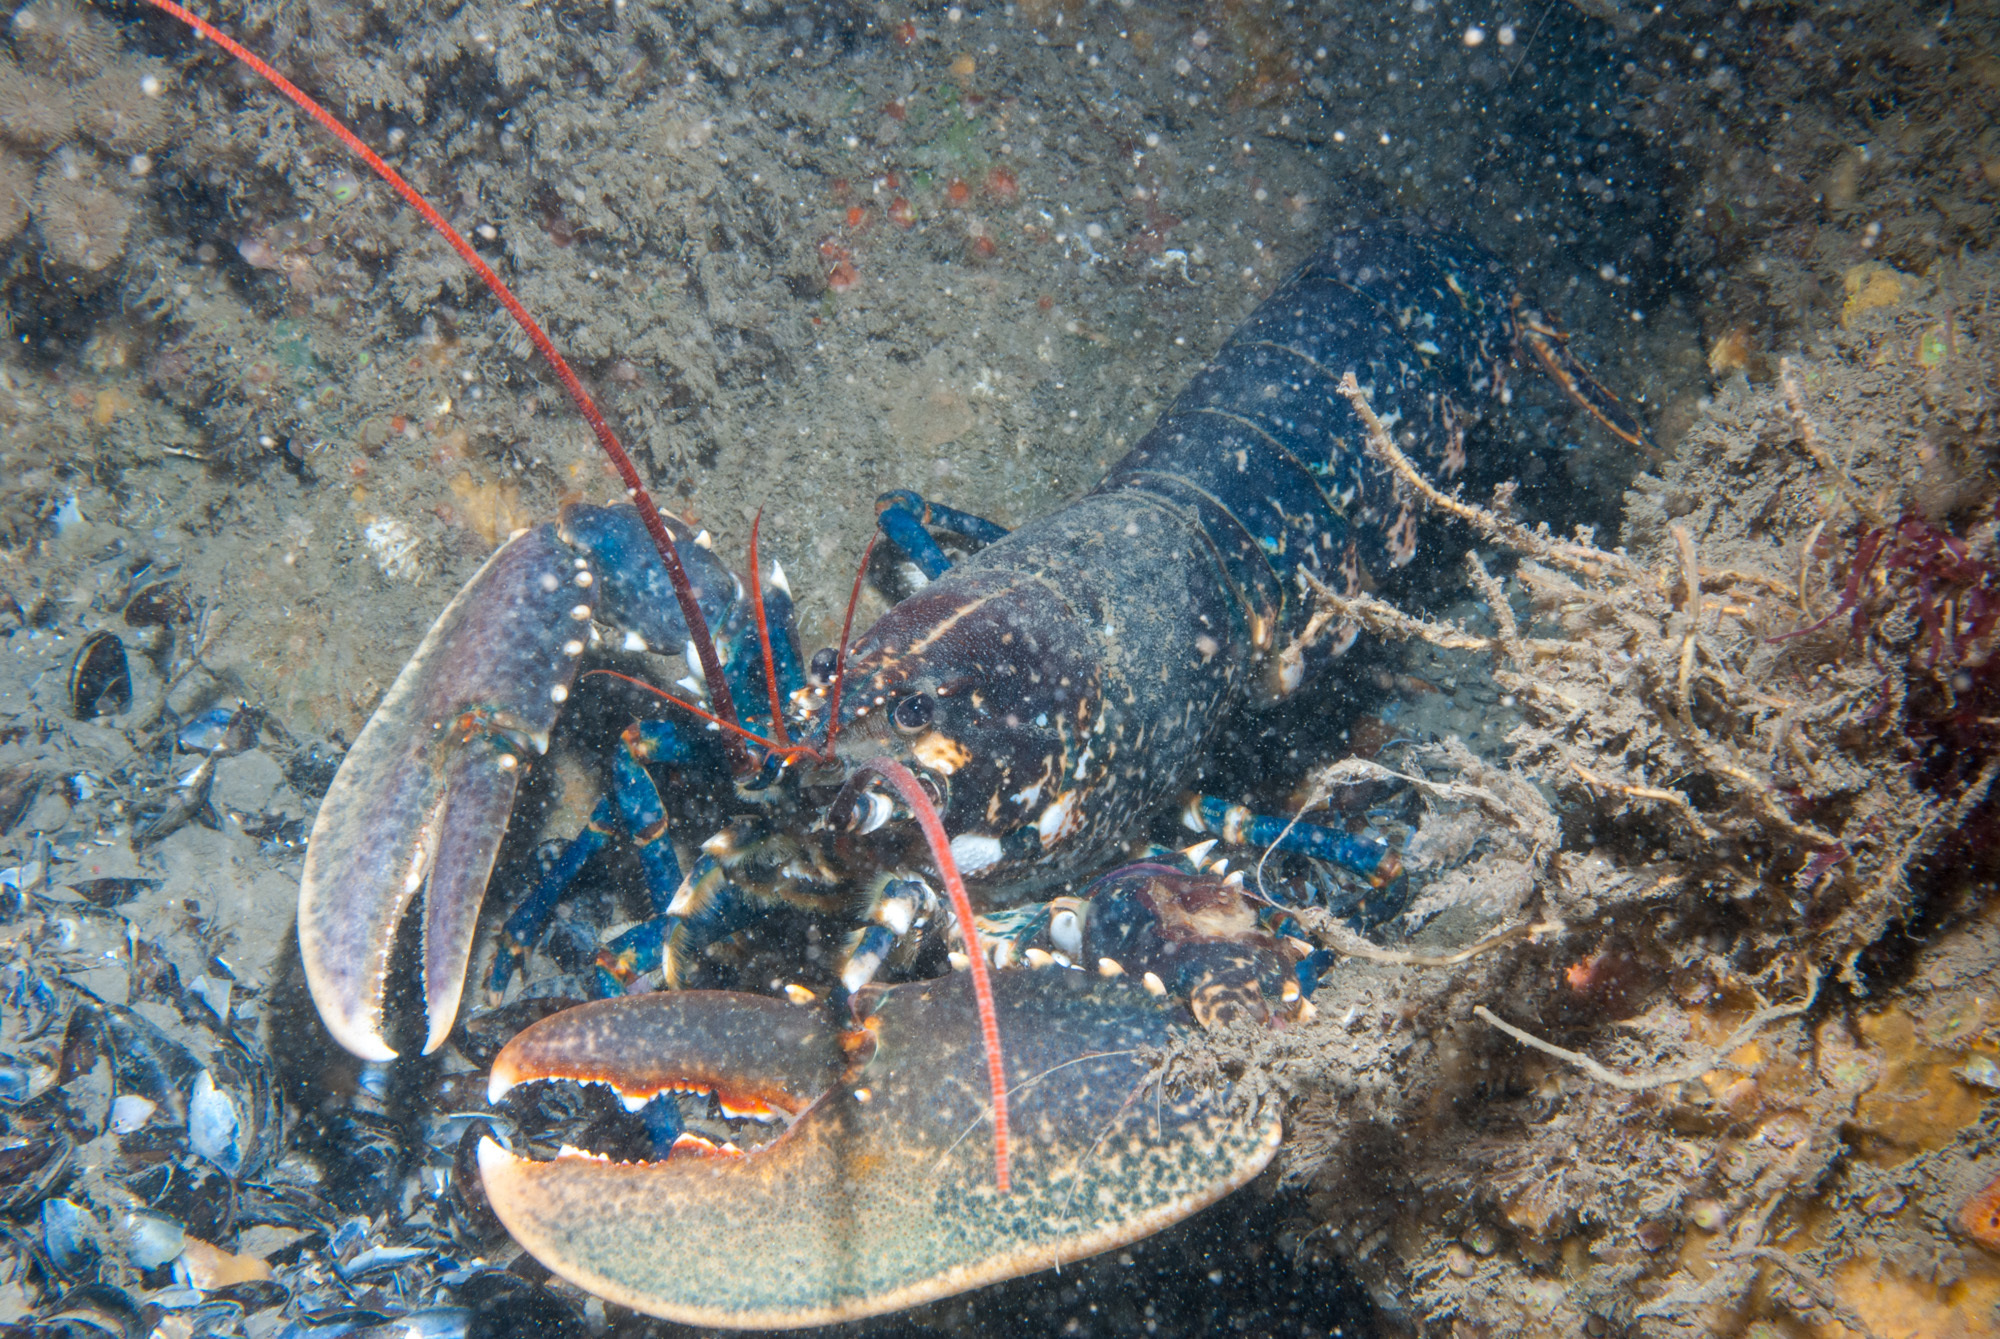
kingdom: Animalia
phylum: Arthropoda
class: Malacostraca
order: Decapoda
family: Nephropidae
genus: Homarus
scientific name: Homarus gammarus
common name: European lobster
